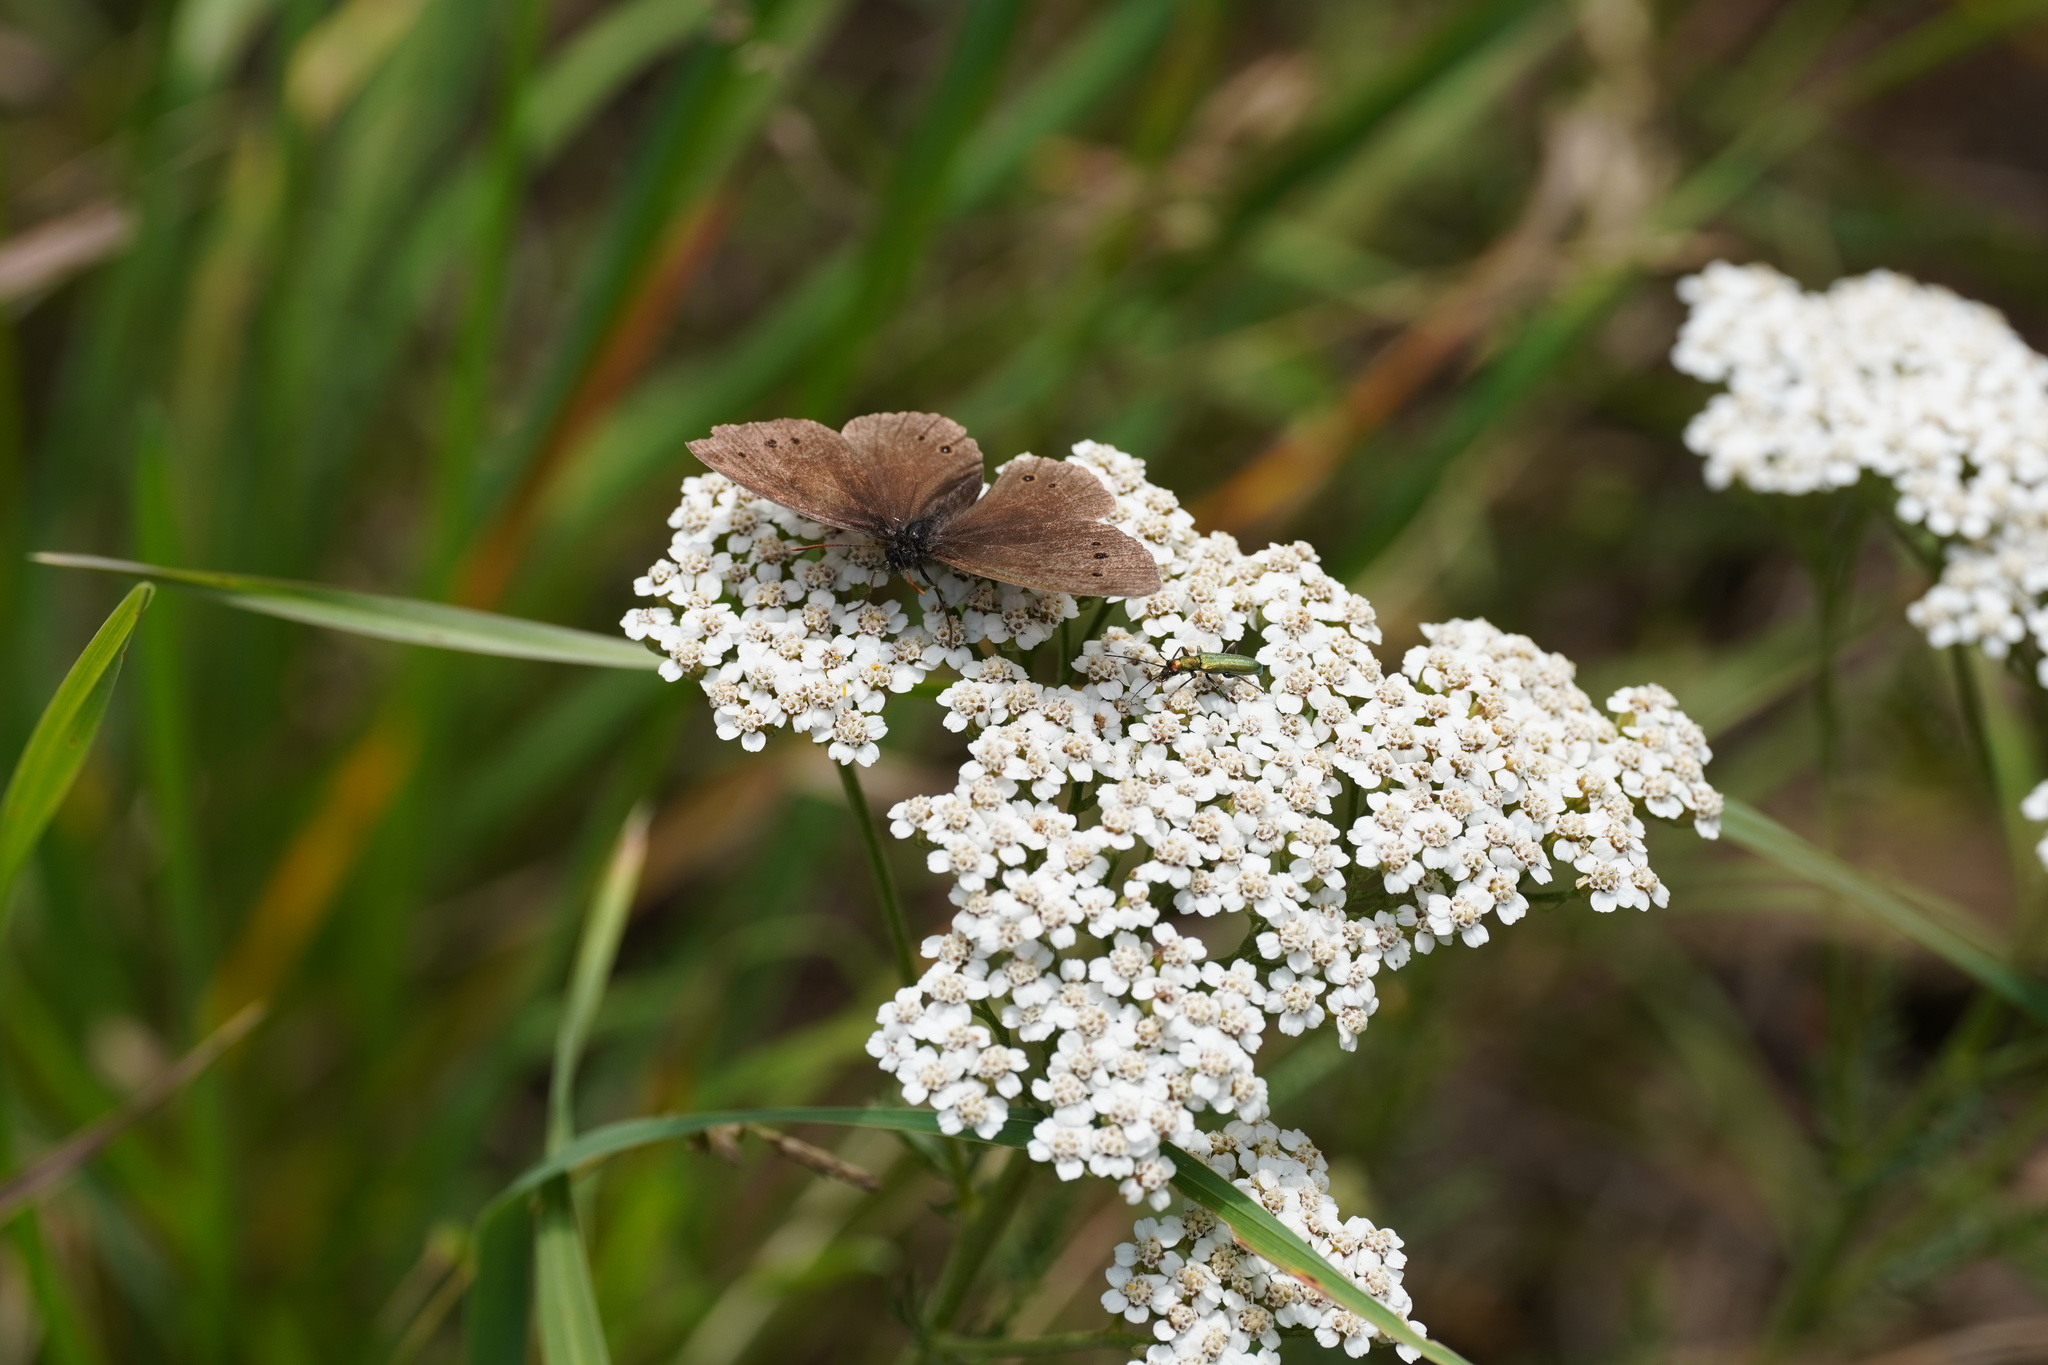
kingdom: Animalia
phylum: Arthropoda
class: Insecta
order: Lepidoptera
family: Nymphalidae
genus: Aphantopus
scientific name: Aphantopus hyperantus
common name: Ringlet
